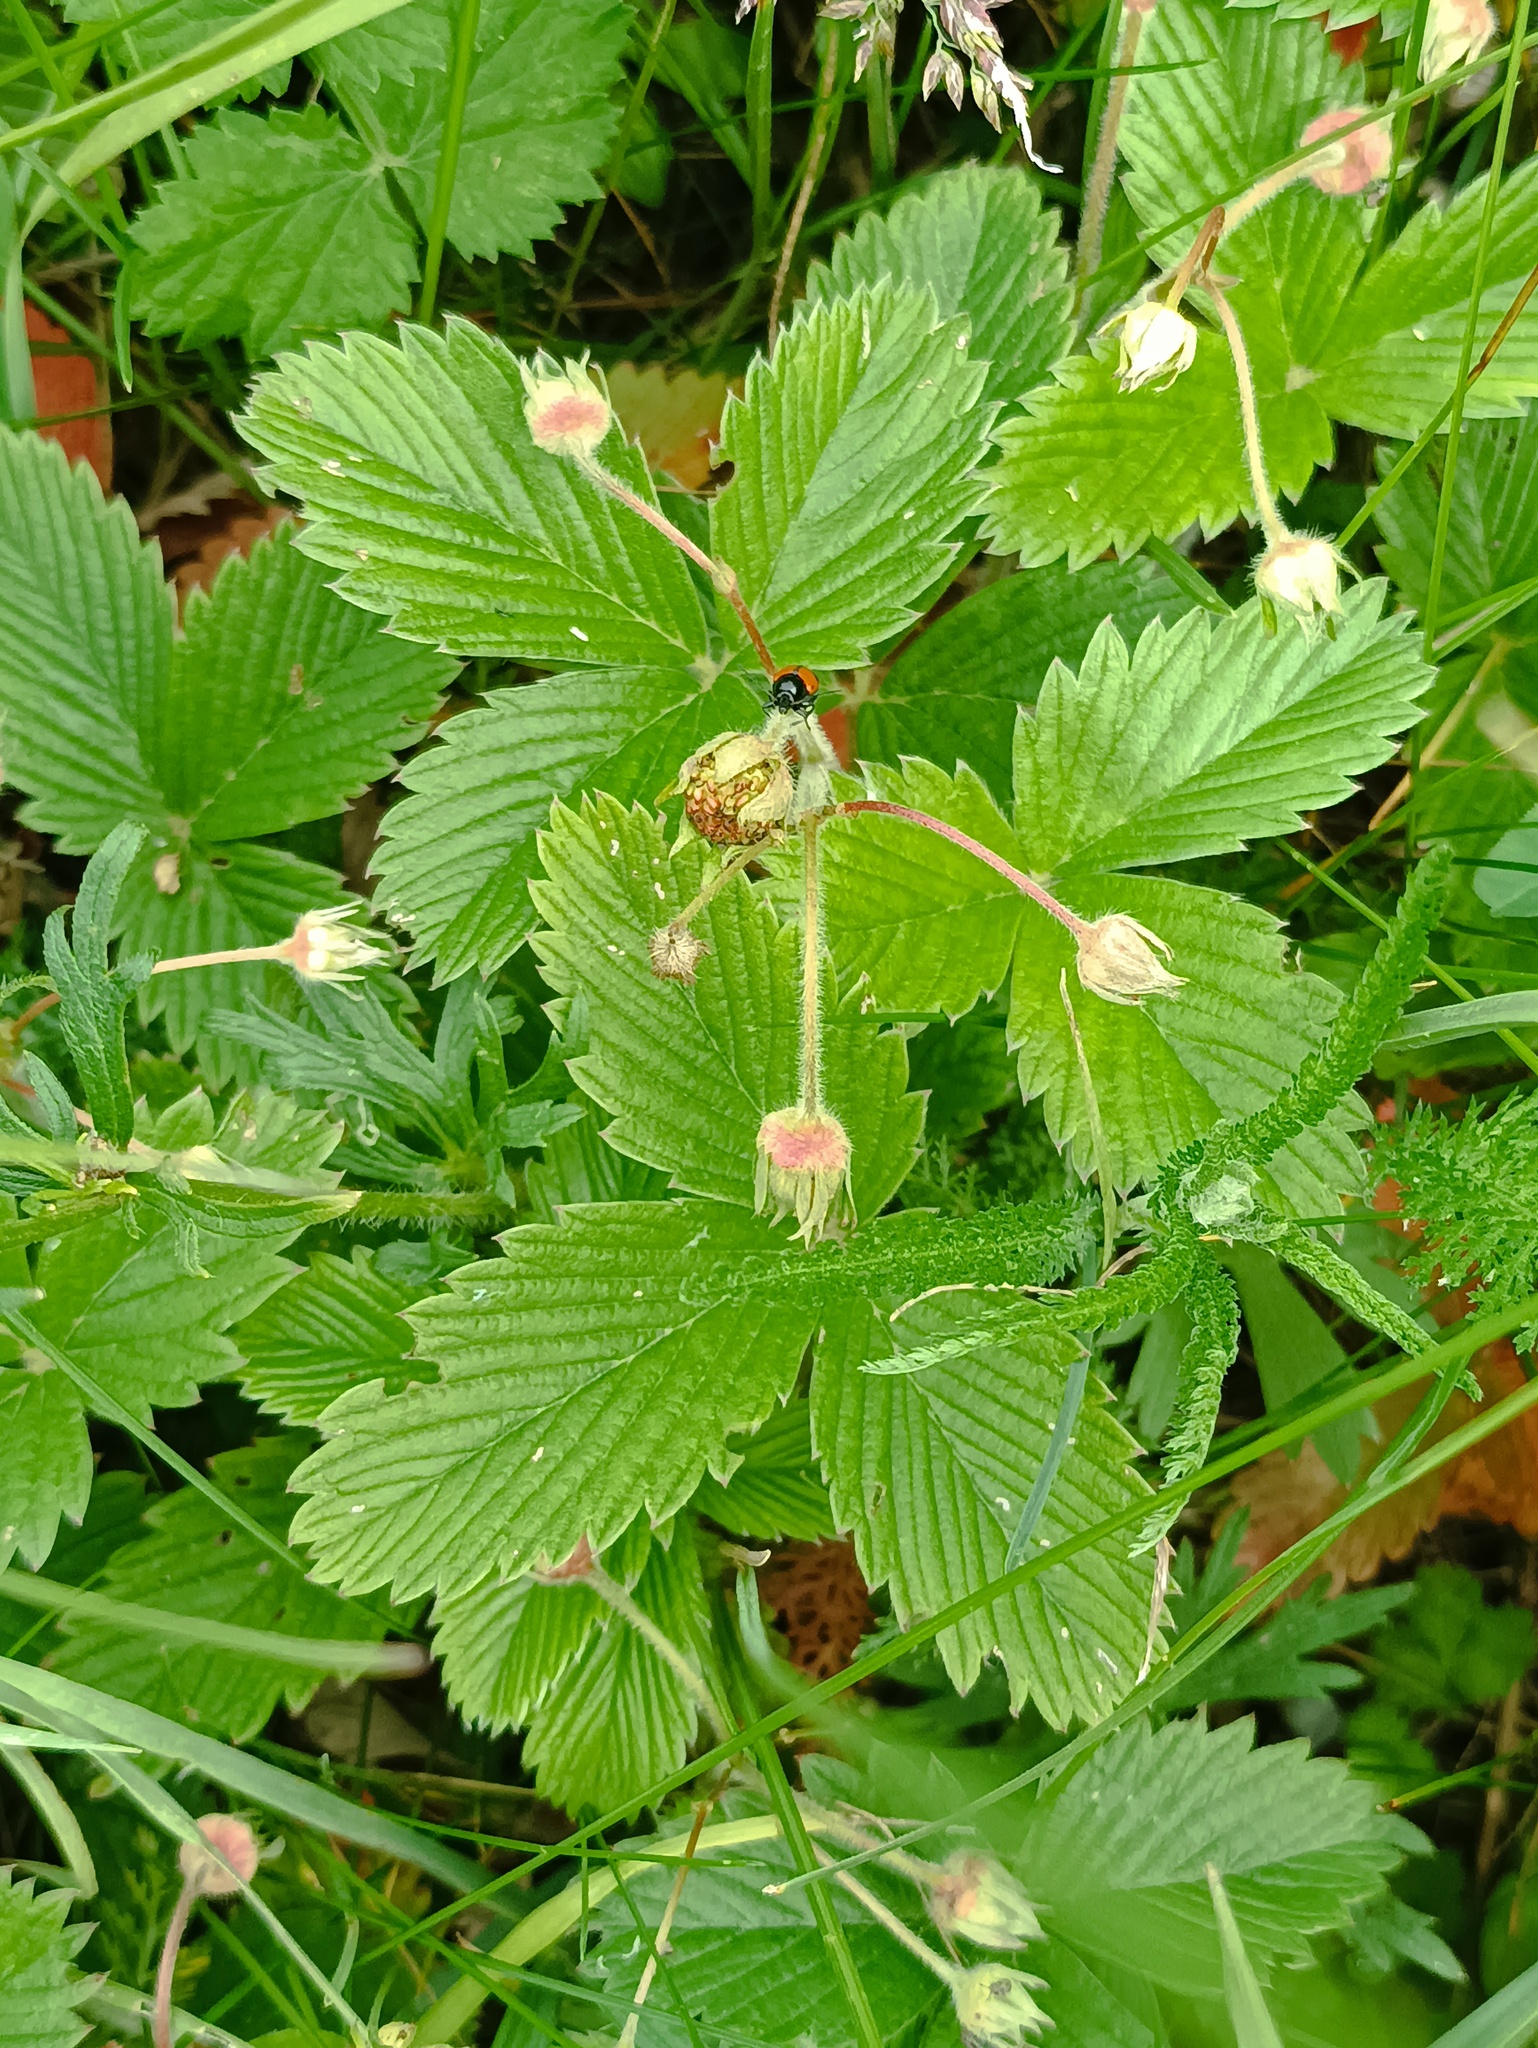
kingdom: Plantae
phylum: Tracheophyta
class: Magnoliopsida
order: Rosales
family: Rosaceae
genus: Fragaria
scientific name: Fragaria viridis
